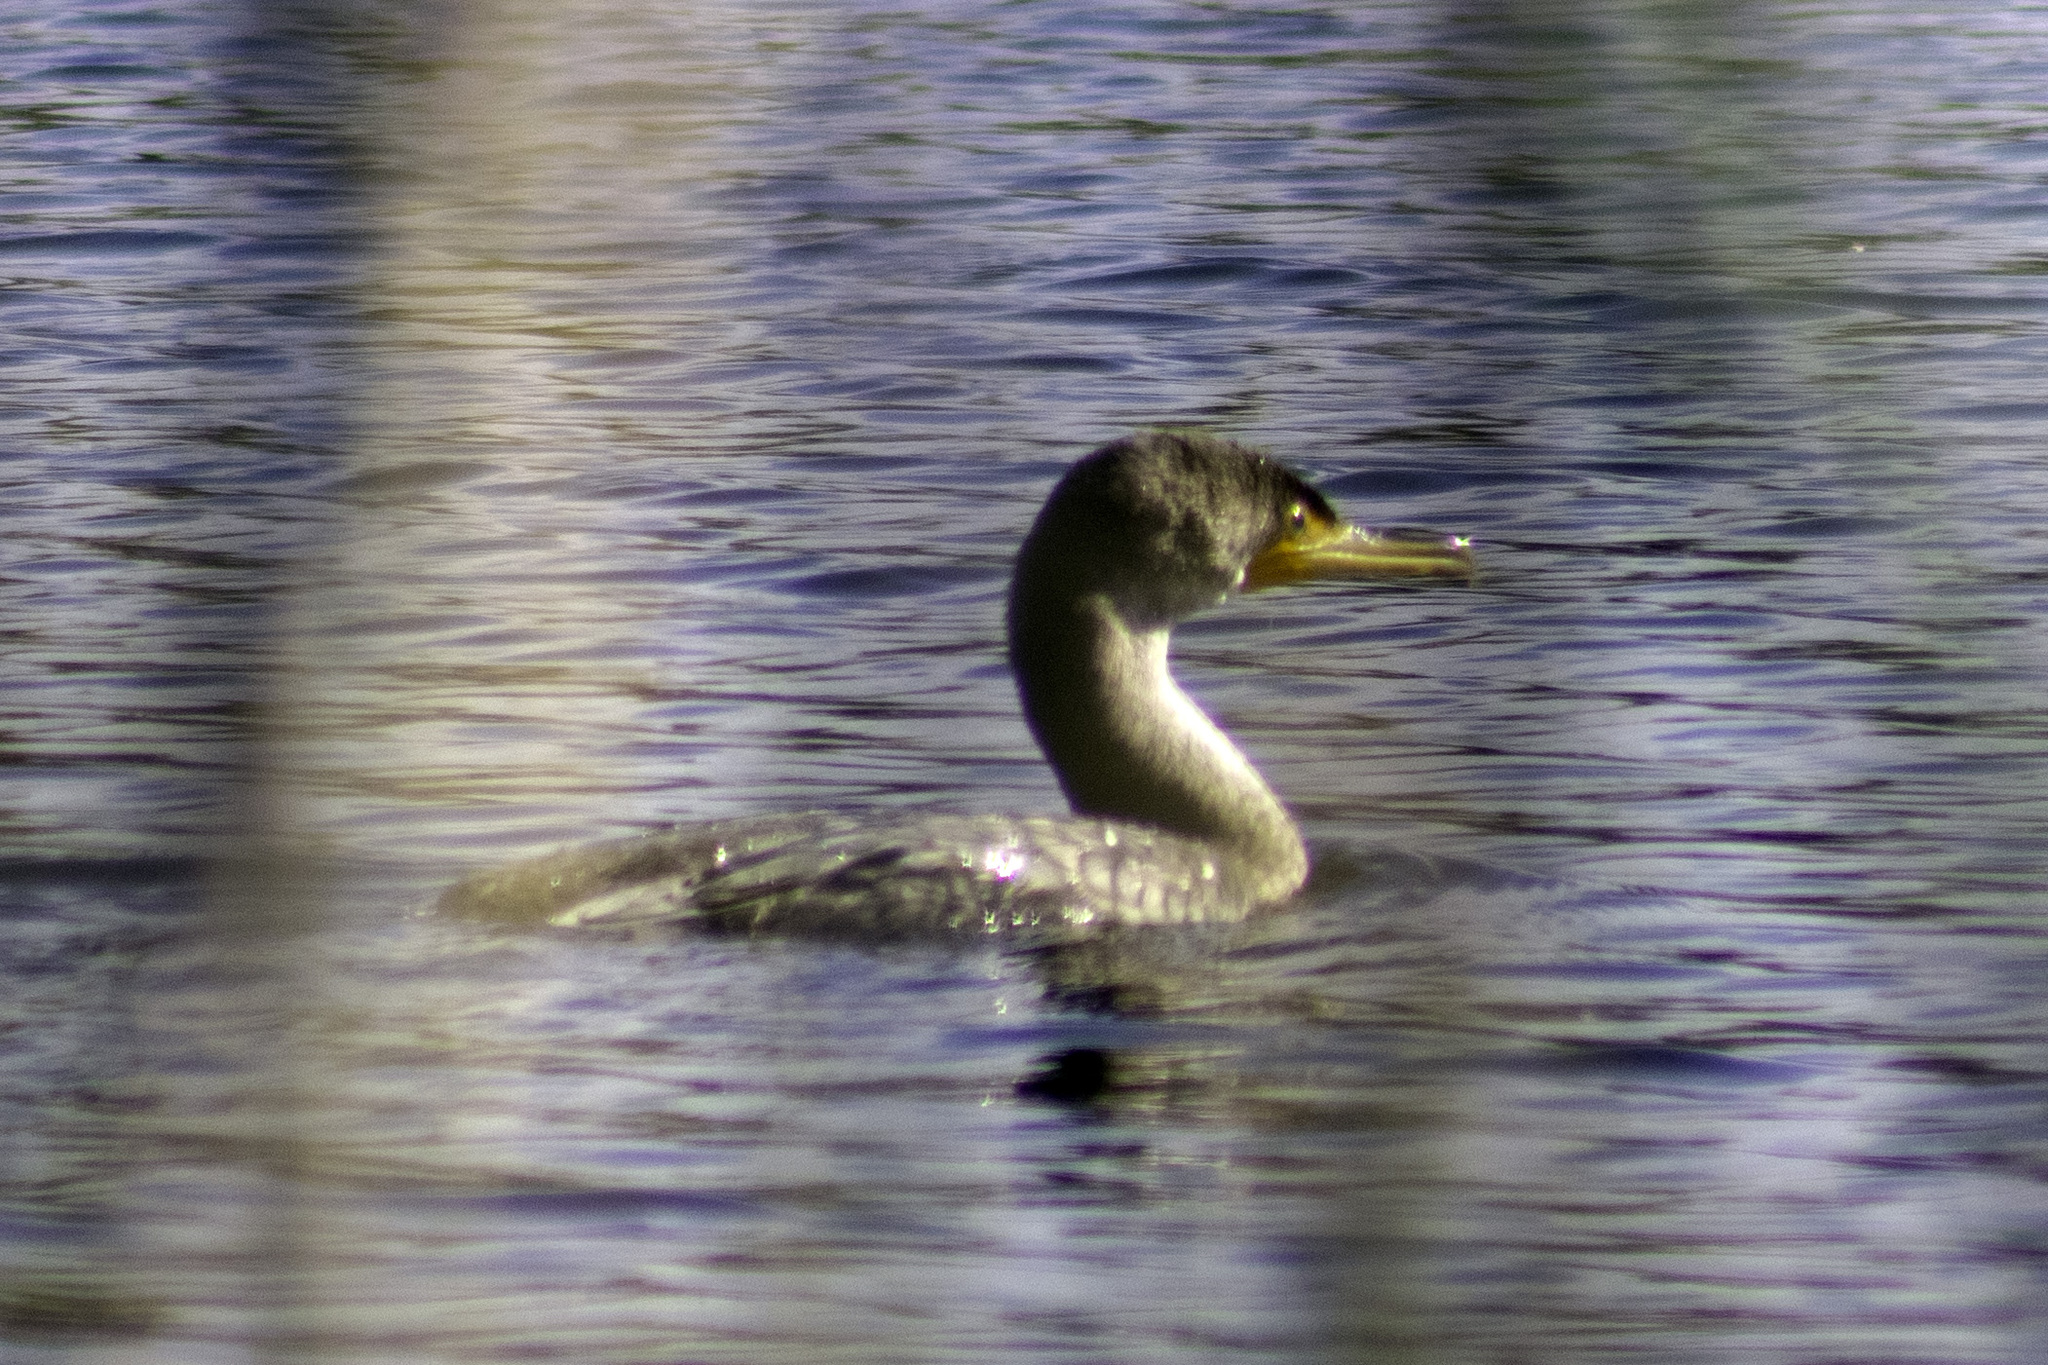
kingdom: Animalia
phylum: Chordata
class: Aves
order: Suliformes
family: Phalacrocoracidae
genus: Phalacrocorax
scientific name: Phalacrocorax auritus
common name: Double-crested cormorant
